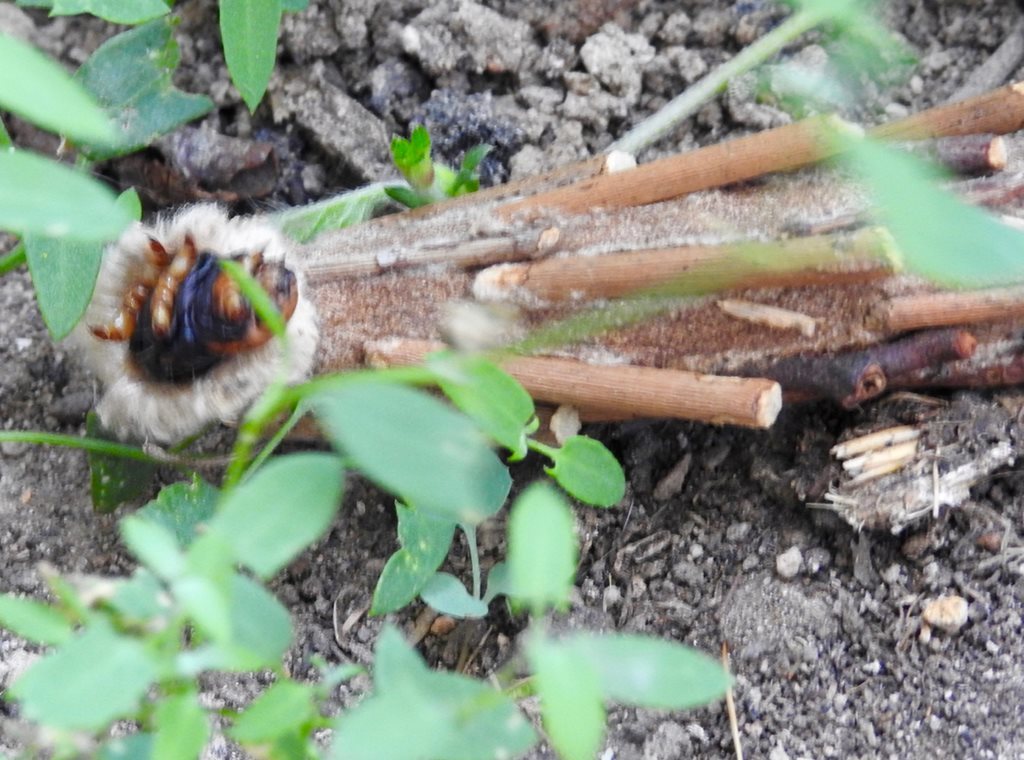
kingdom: Animalia
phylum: Arthropoda
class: Insecta
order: Lepidoptera
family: Psychidae
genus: Metura
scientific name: Metura elongatus
